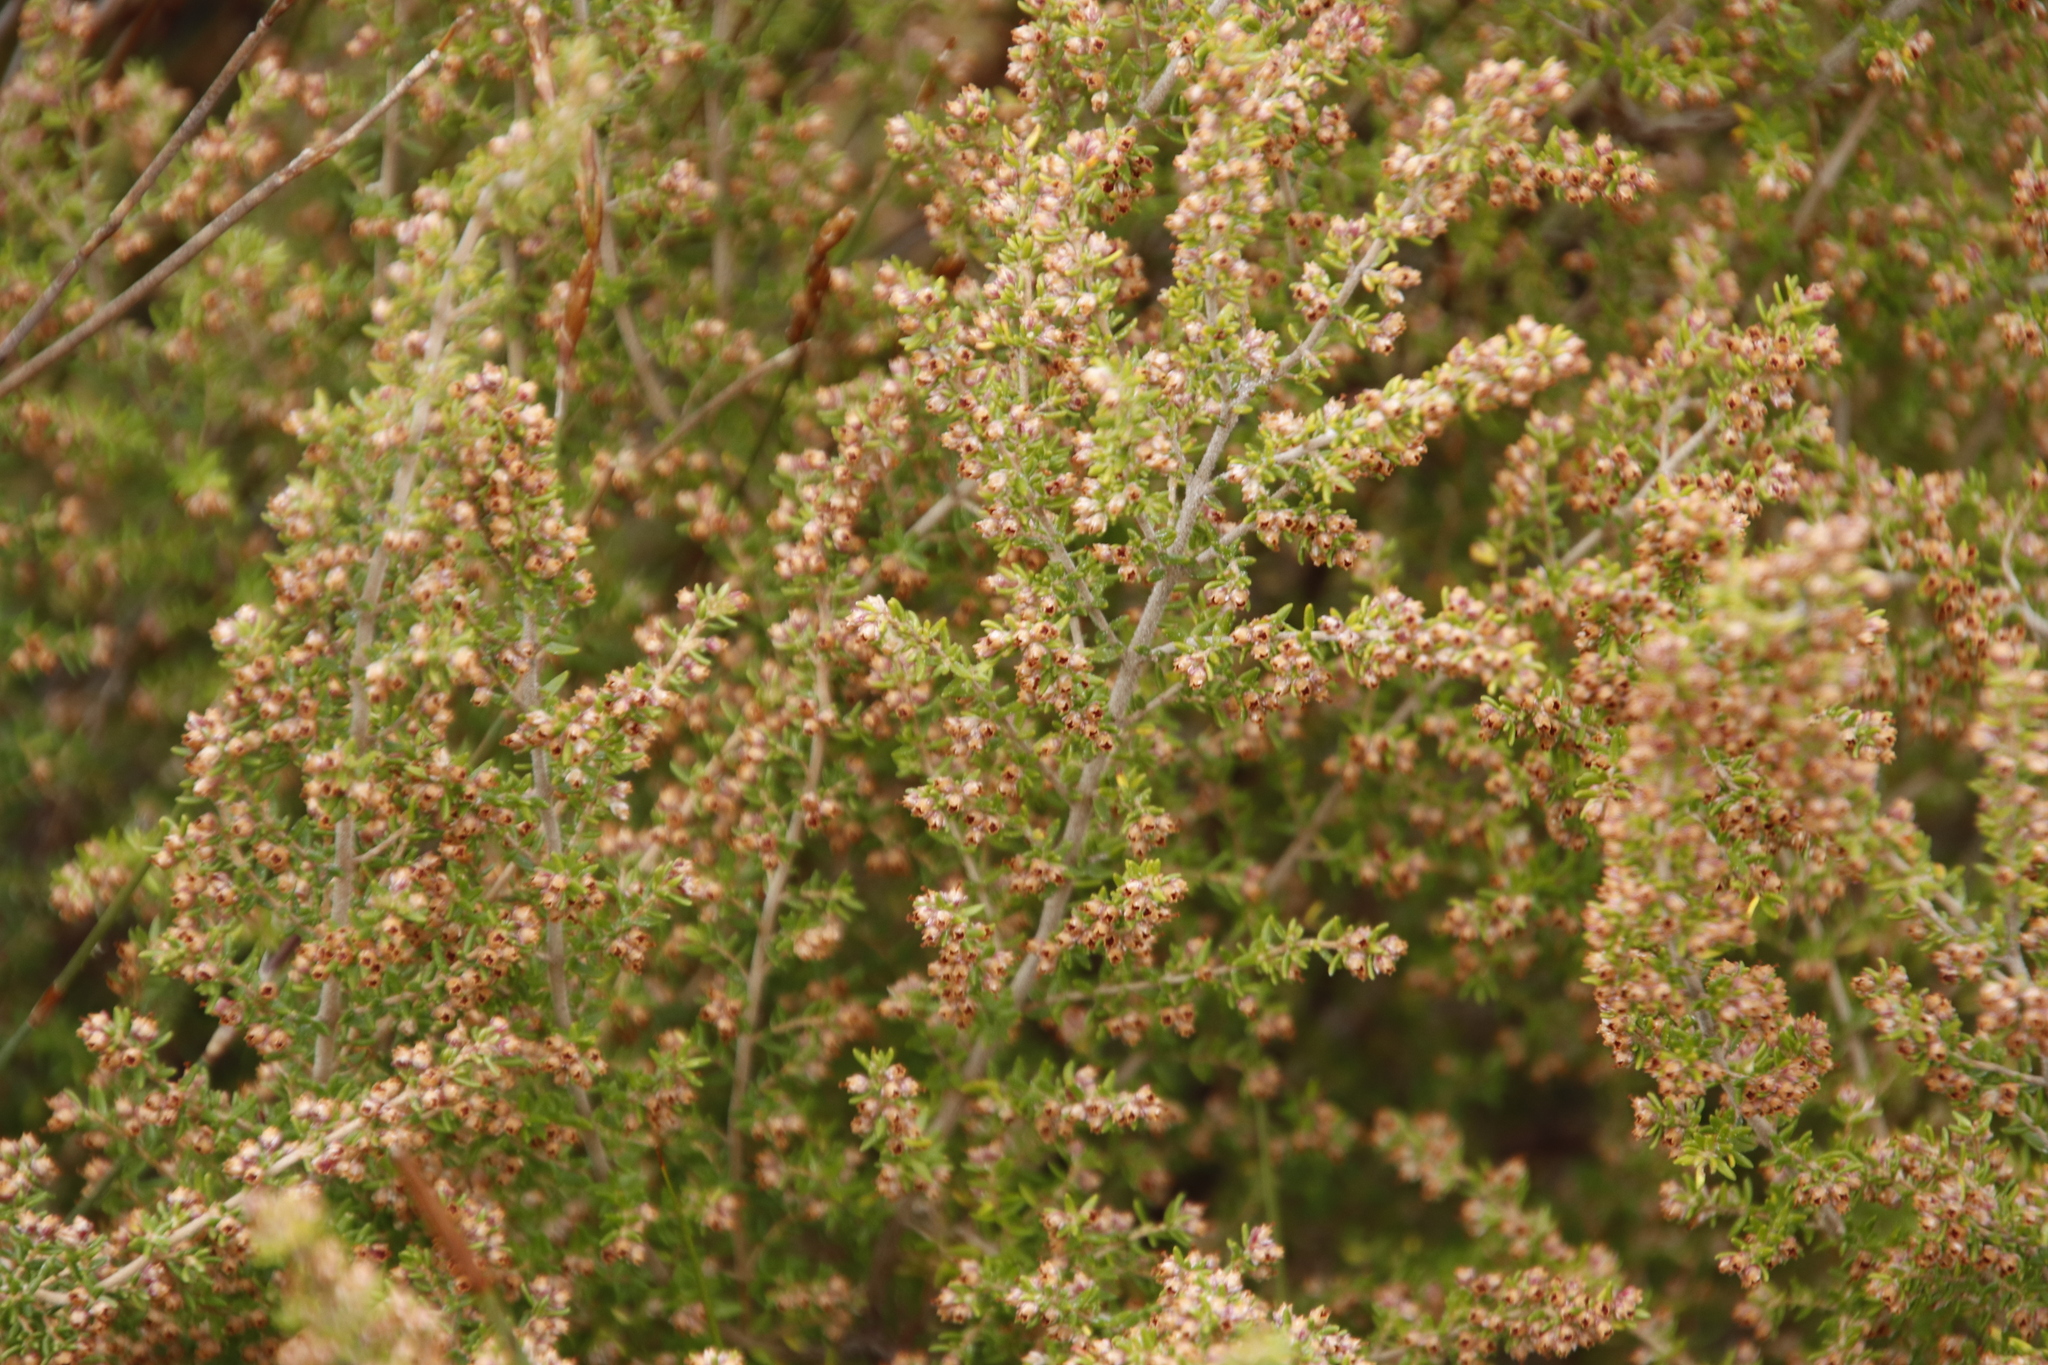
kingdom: Plantae
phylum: Tracheophyta
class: Magnoliopsida
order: Ericales
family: Ericaceae
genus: Erica
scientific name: Erica hispidula
